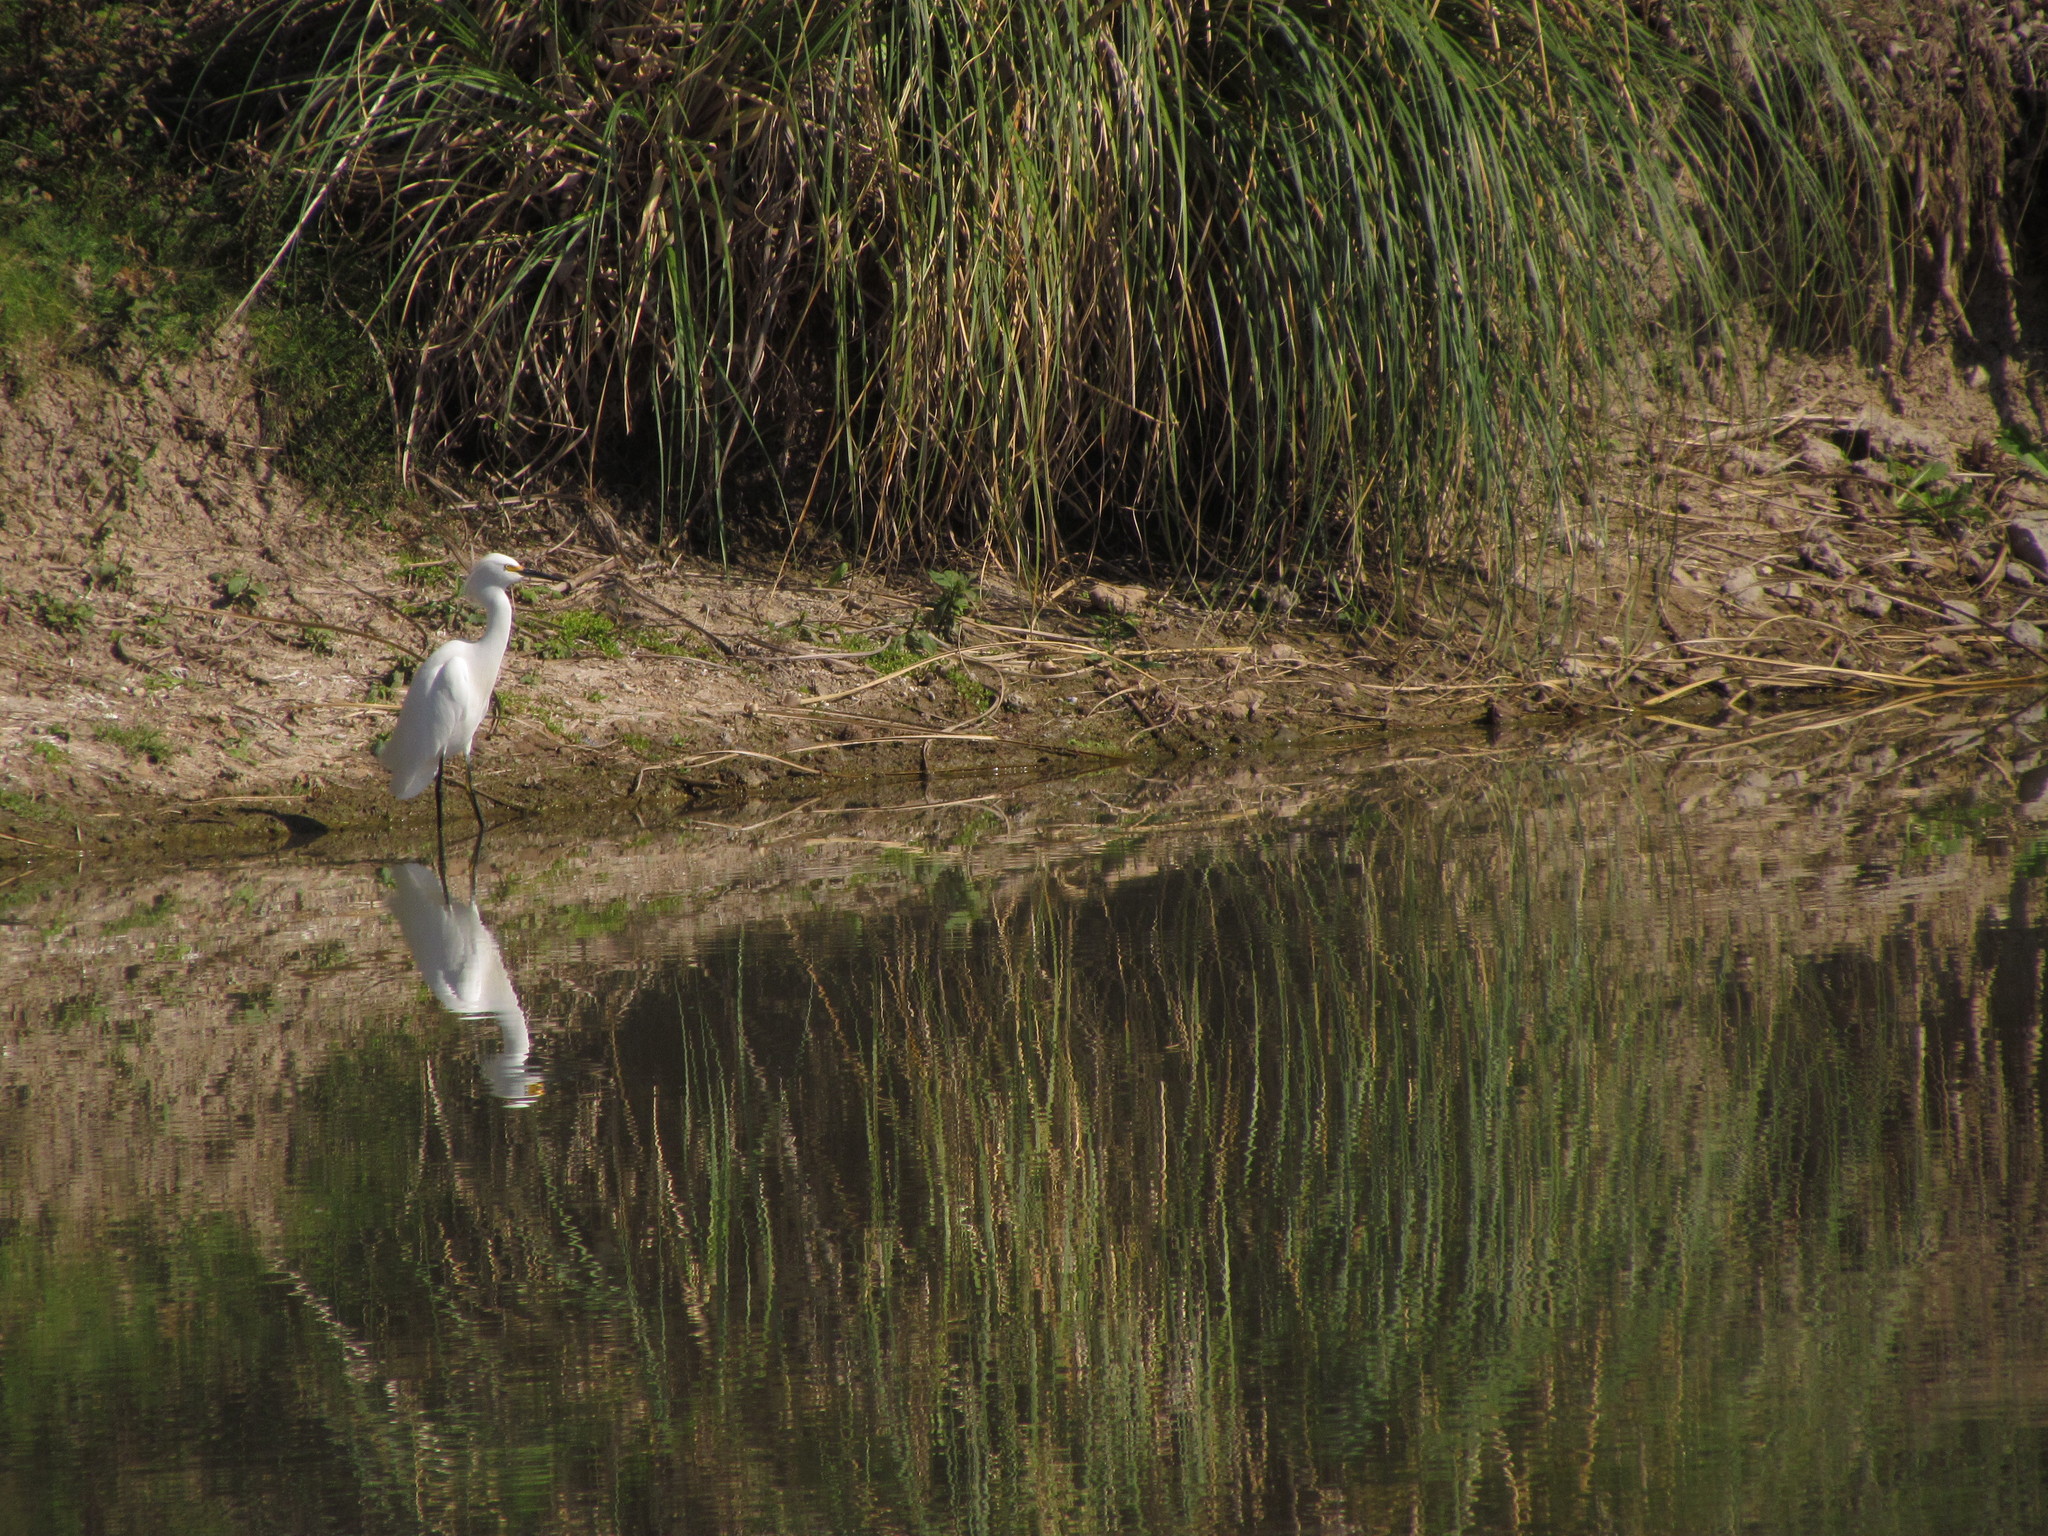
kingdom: Animalia
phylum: Chordata
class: Aves
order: Pelecaniformes
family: Ardeidae
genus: Egretta
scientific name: Egretta thula
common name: Snowy egret
